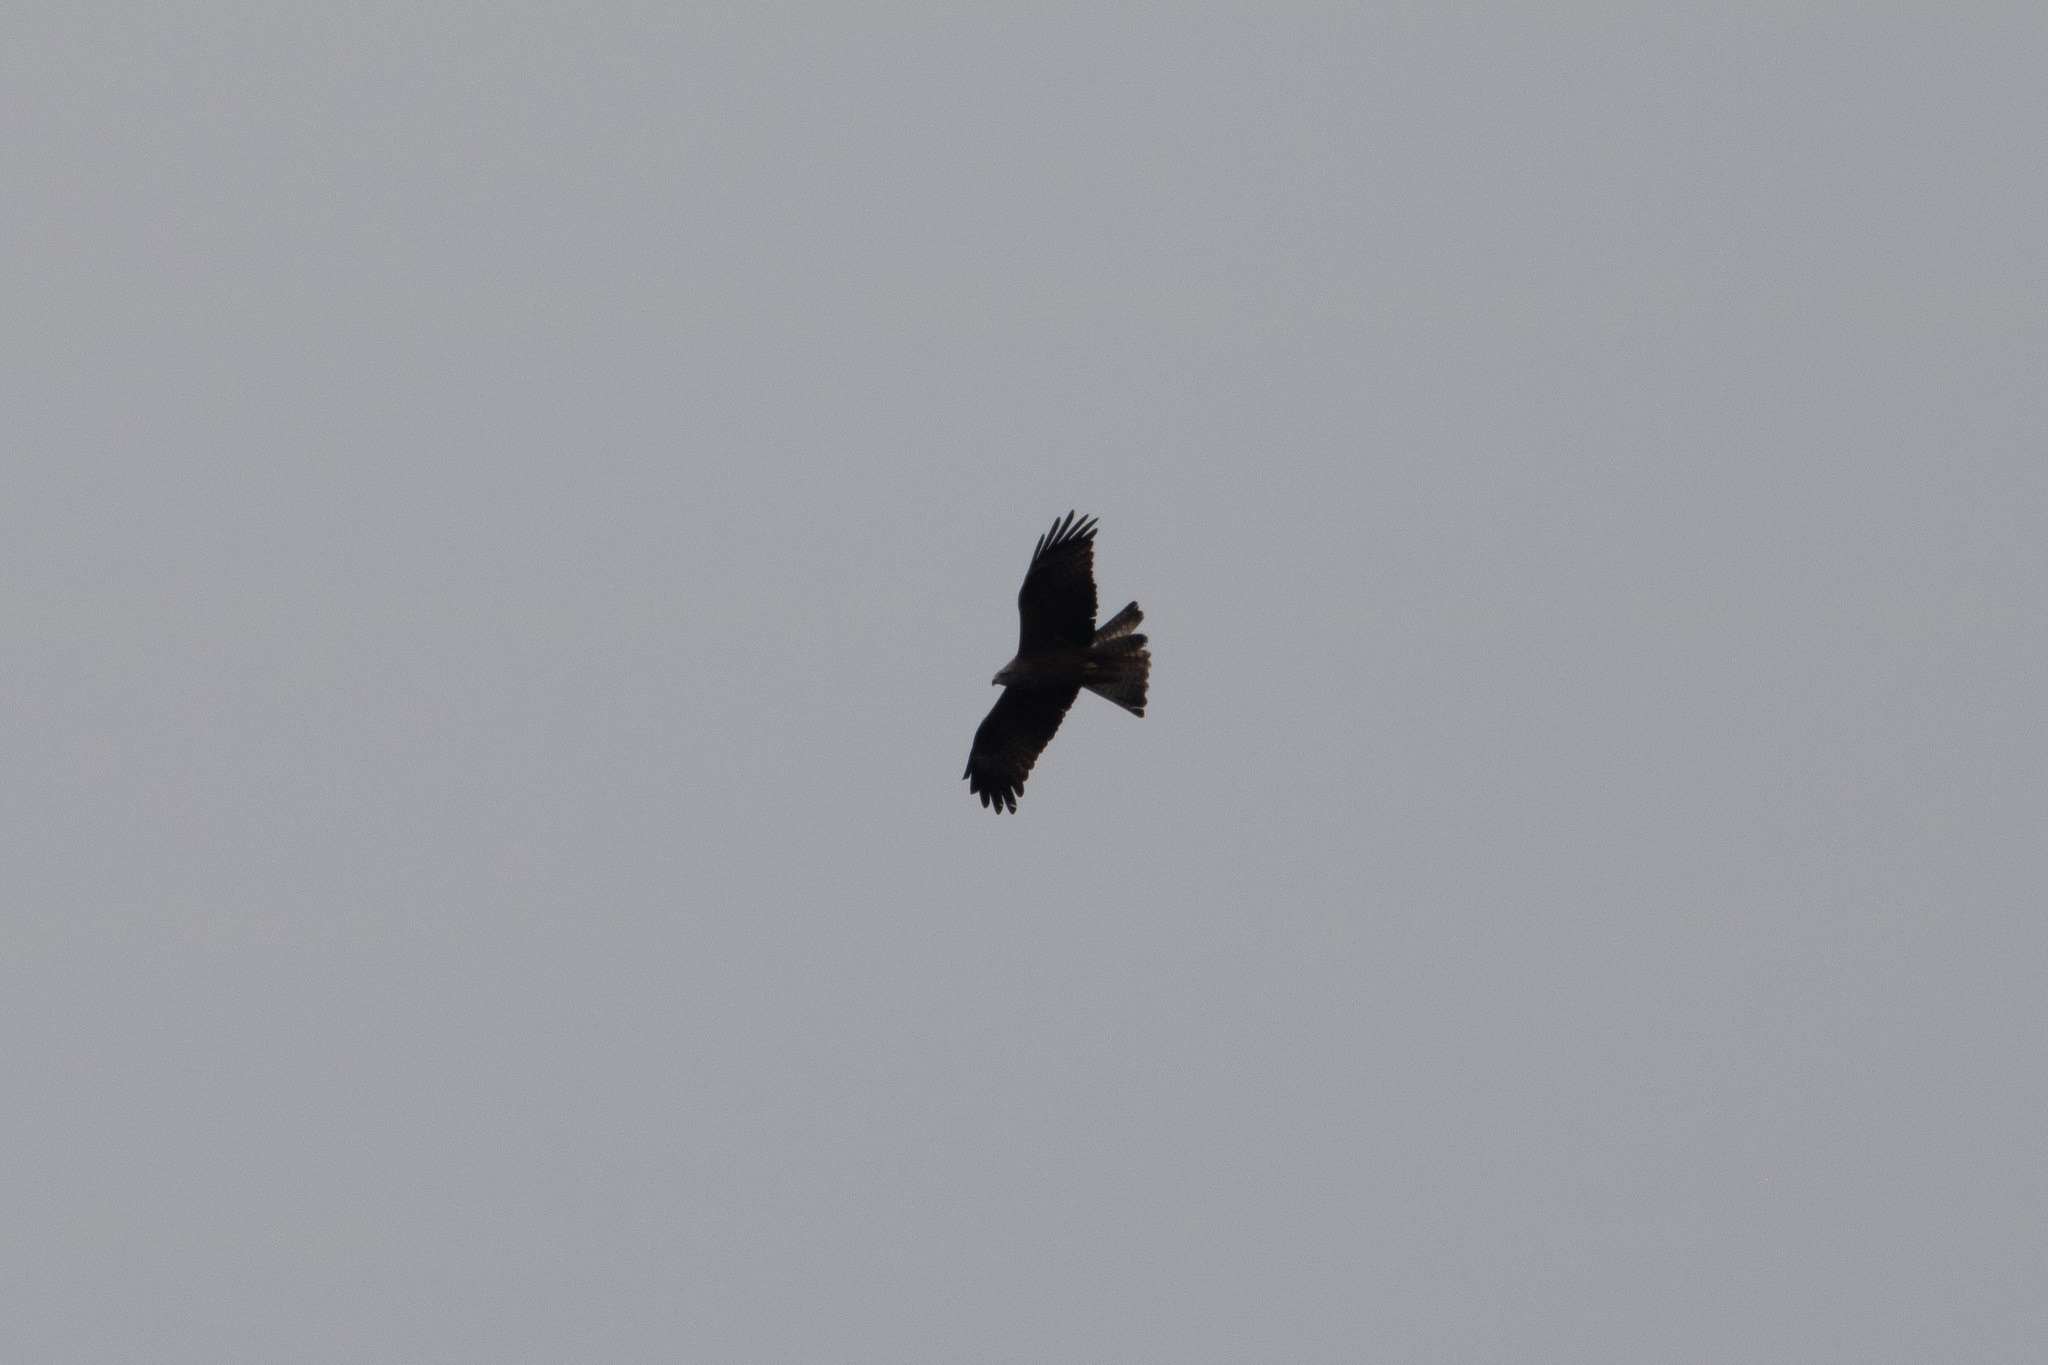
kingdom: Animalia
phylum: Chordata
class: Aves
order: Accipitriformes
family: Accipitridae
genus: Milvus
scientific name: Milvus migrans
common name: Black kite
